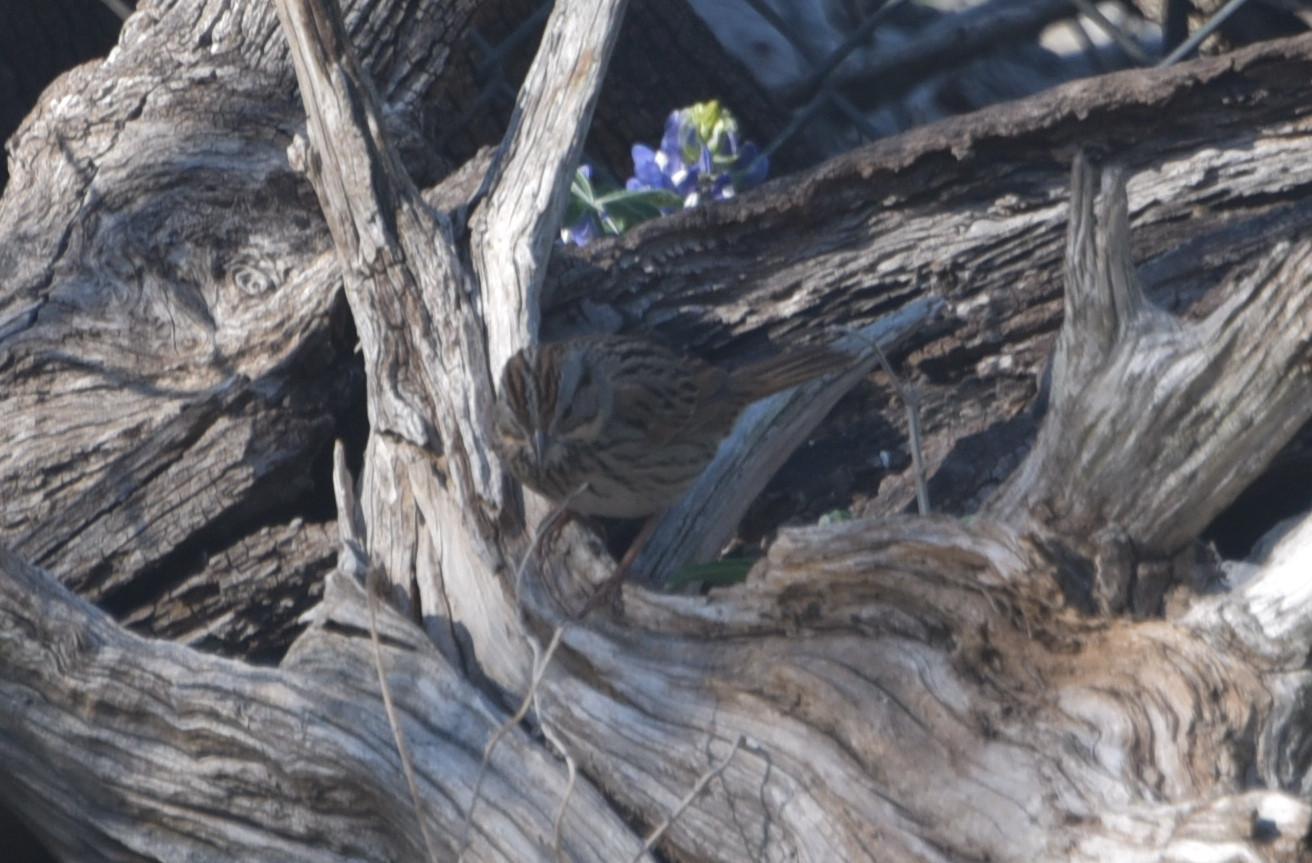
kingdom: Animalia
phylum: Chordata
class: Aves
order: Passeriformes
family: Passerellidae
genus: Melospiza
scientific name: Melospiza lincolnii
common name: Lincoln's sparrow
